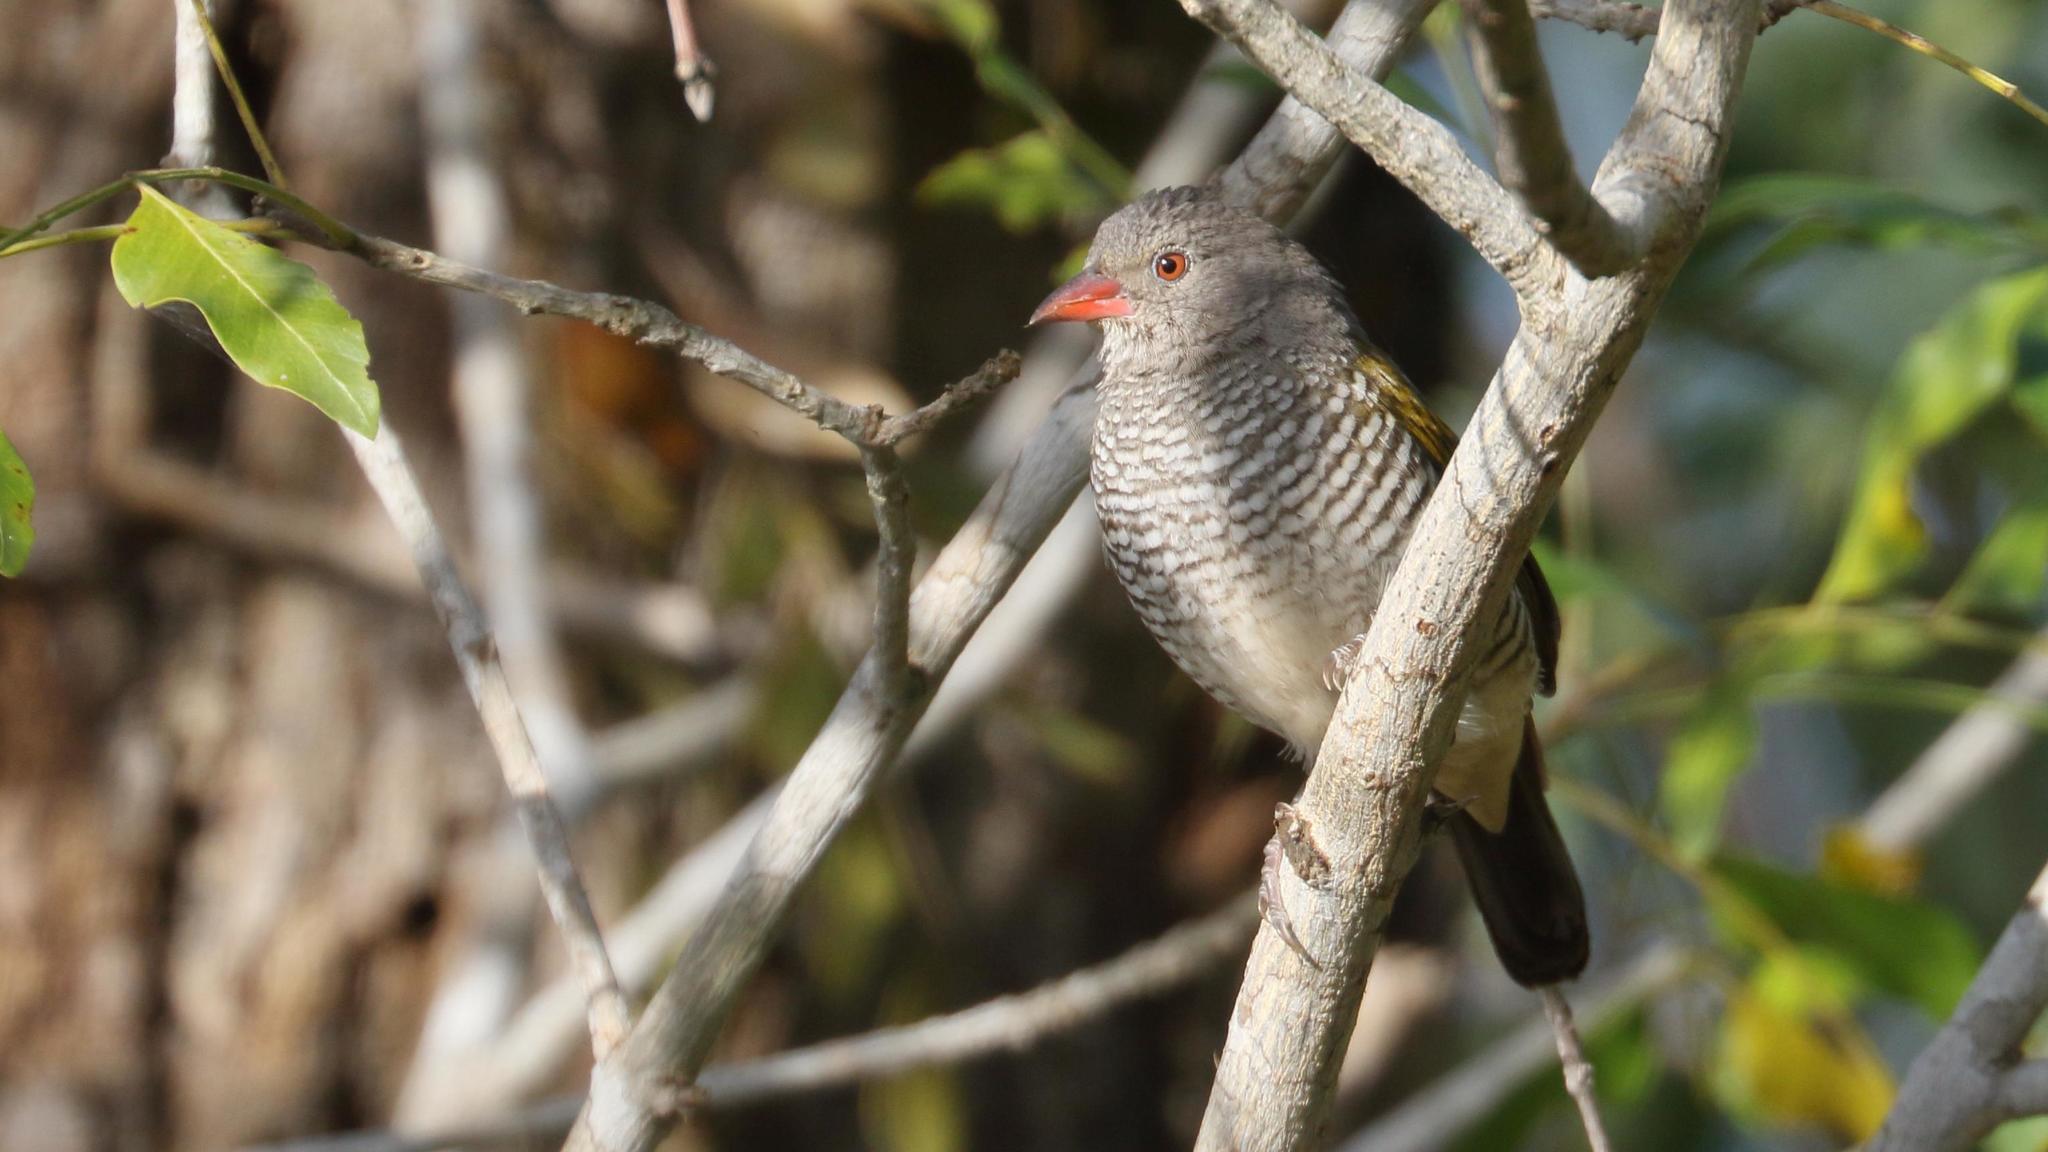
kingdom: Animalia
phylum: Chordata
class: Aves
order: Passeriformes
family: Estrildidae
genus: Pytilia
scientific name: Pytilia melba
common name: Green-winged pytilia
